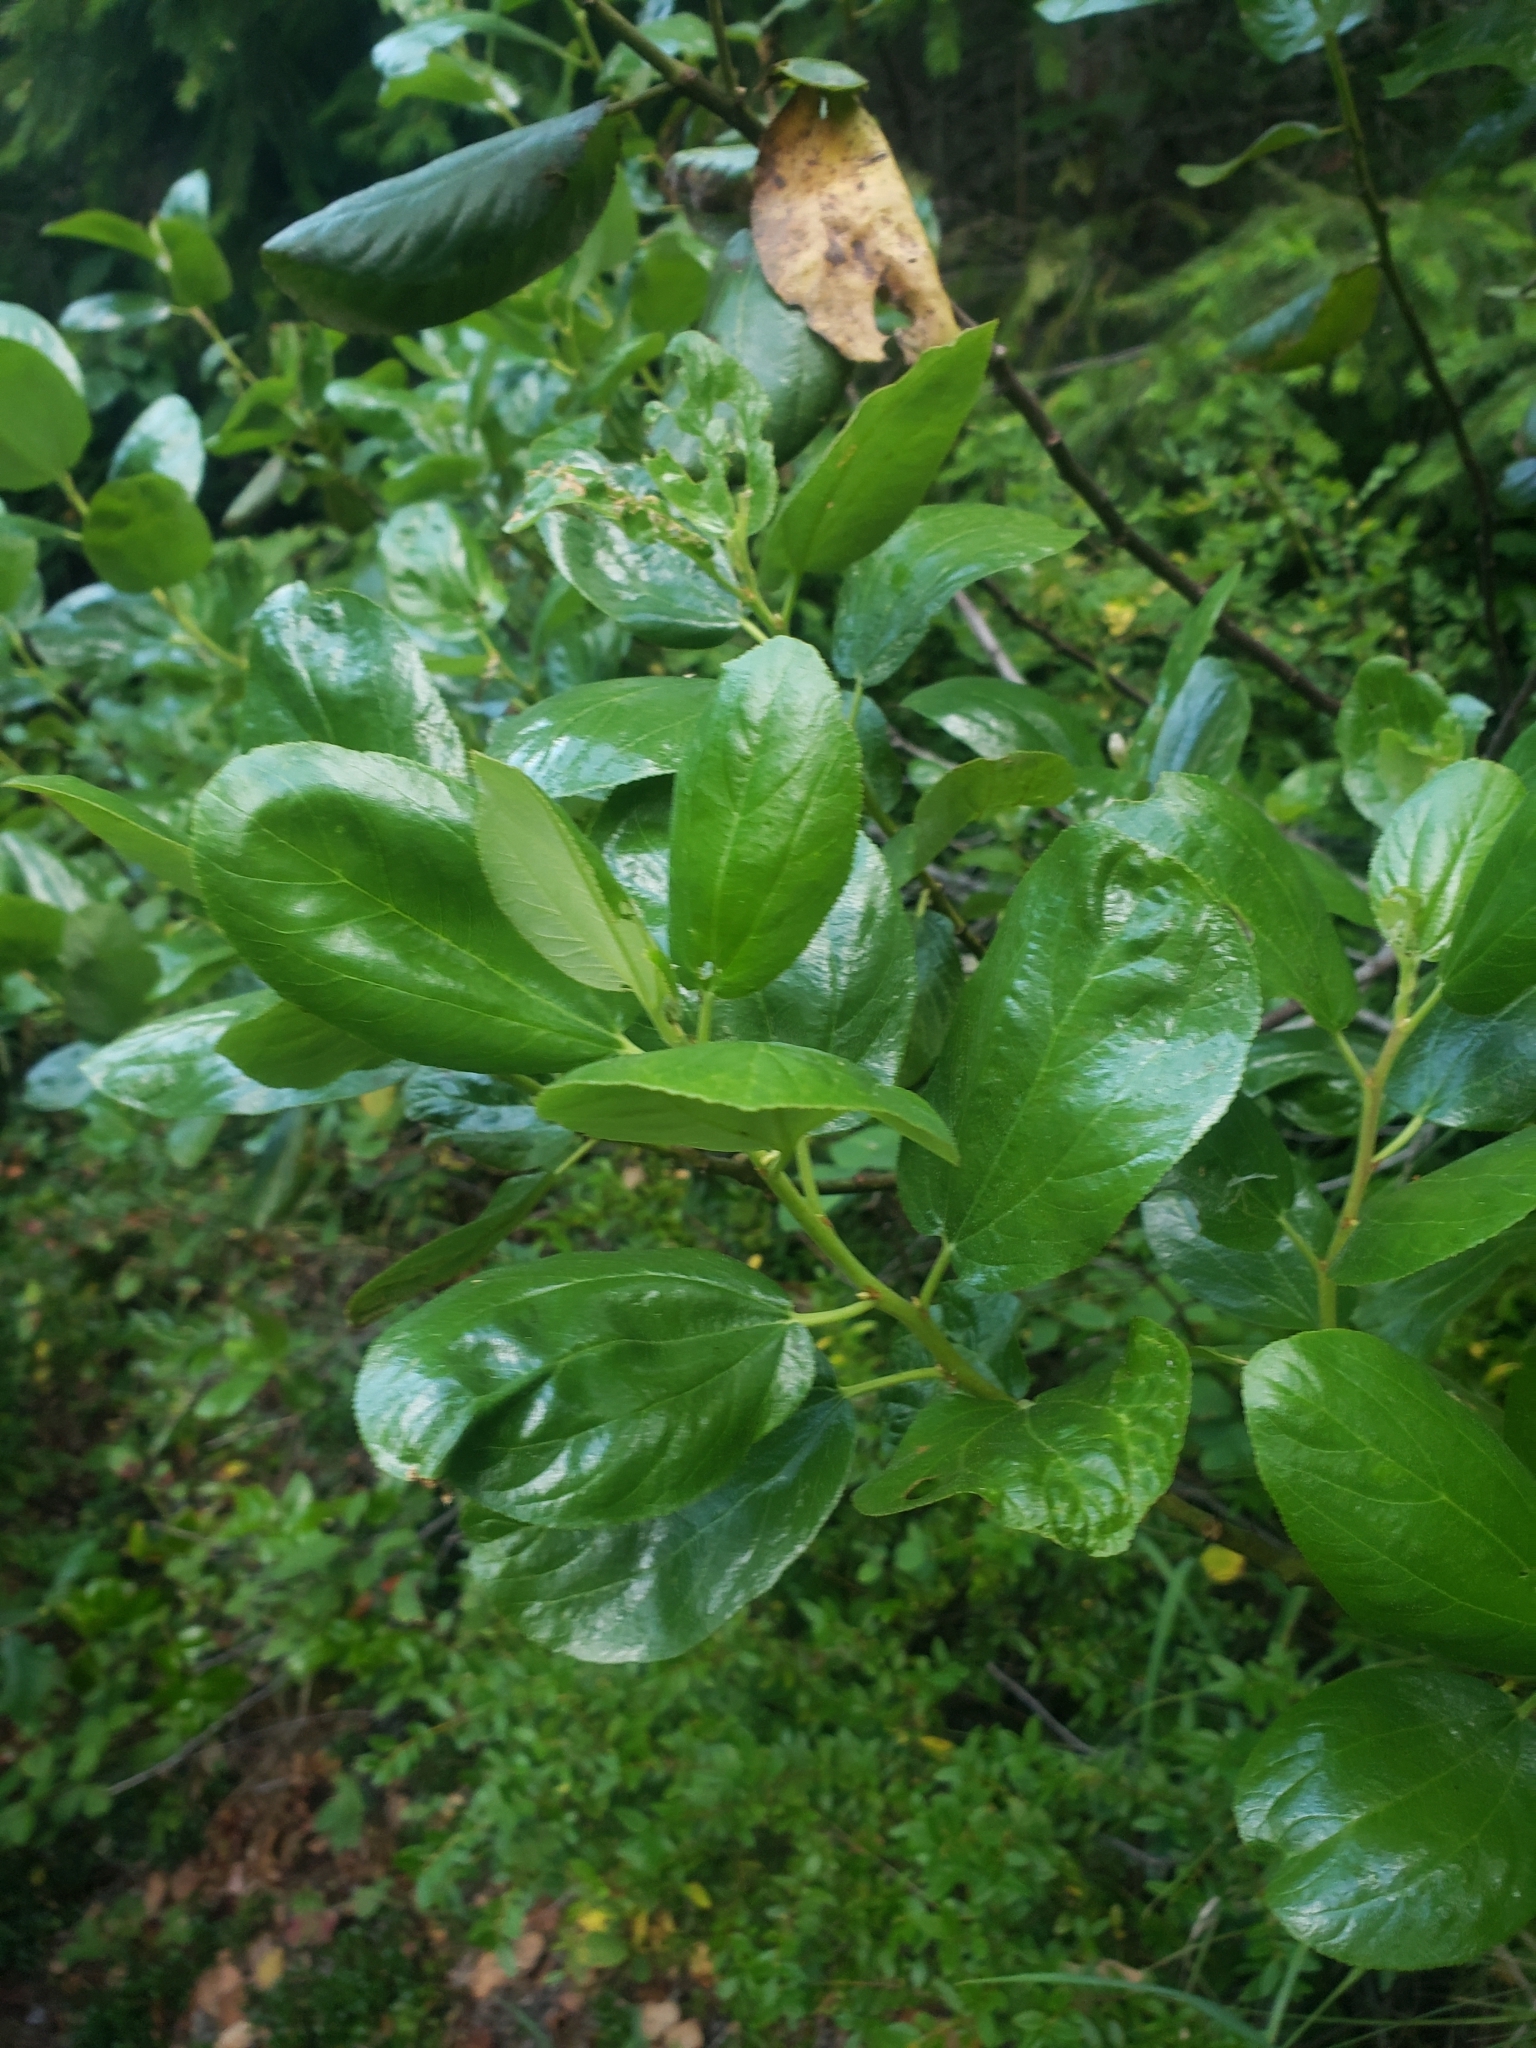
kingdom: Plantae
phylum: Tracheophyta
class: Magnoliopsida
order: Rosales
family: Rhamnaceae
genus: Ceanothus
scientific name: Ceanothus velutinus
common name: Snowbrush
